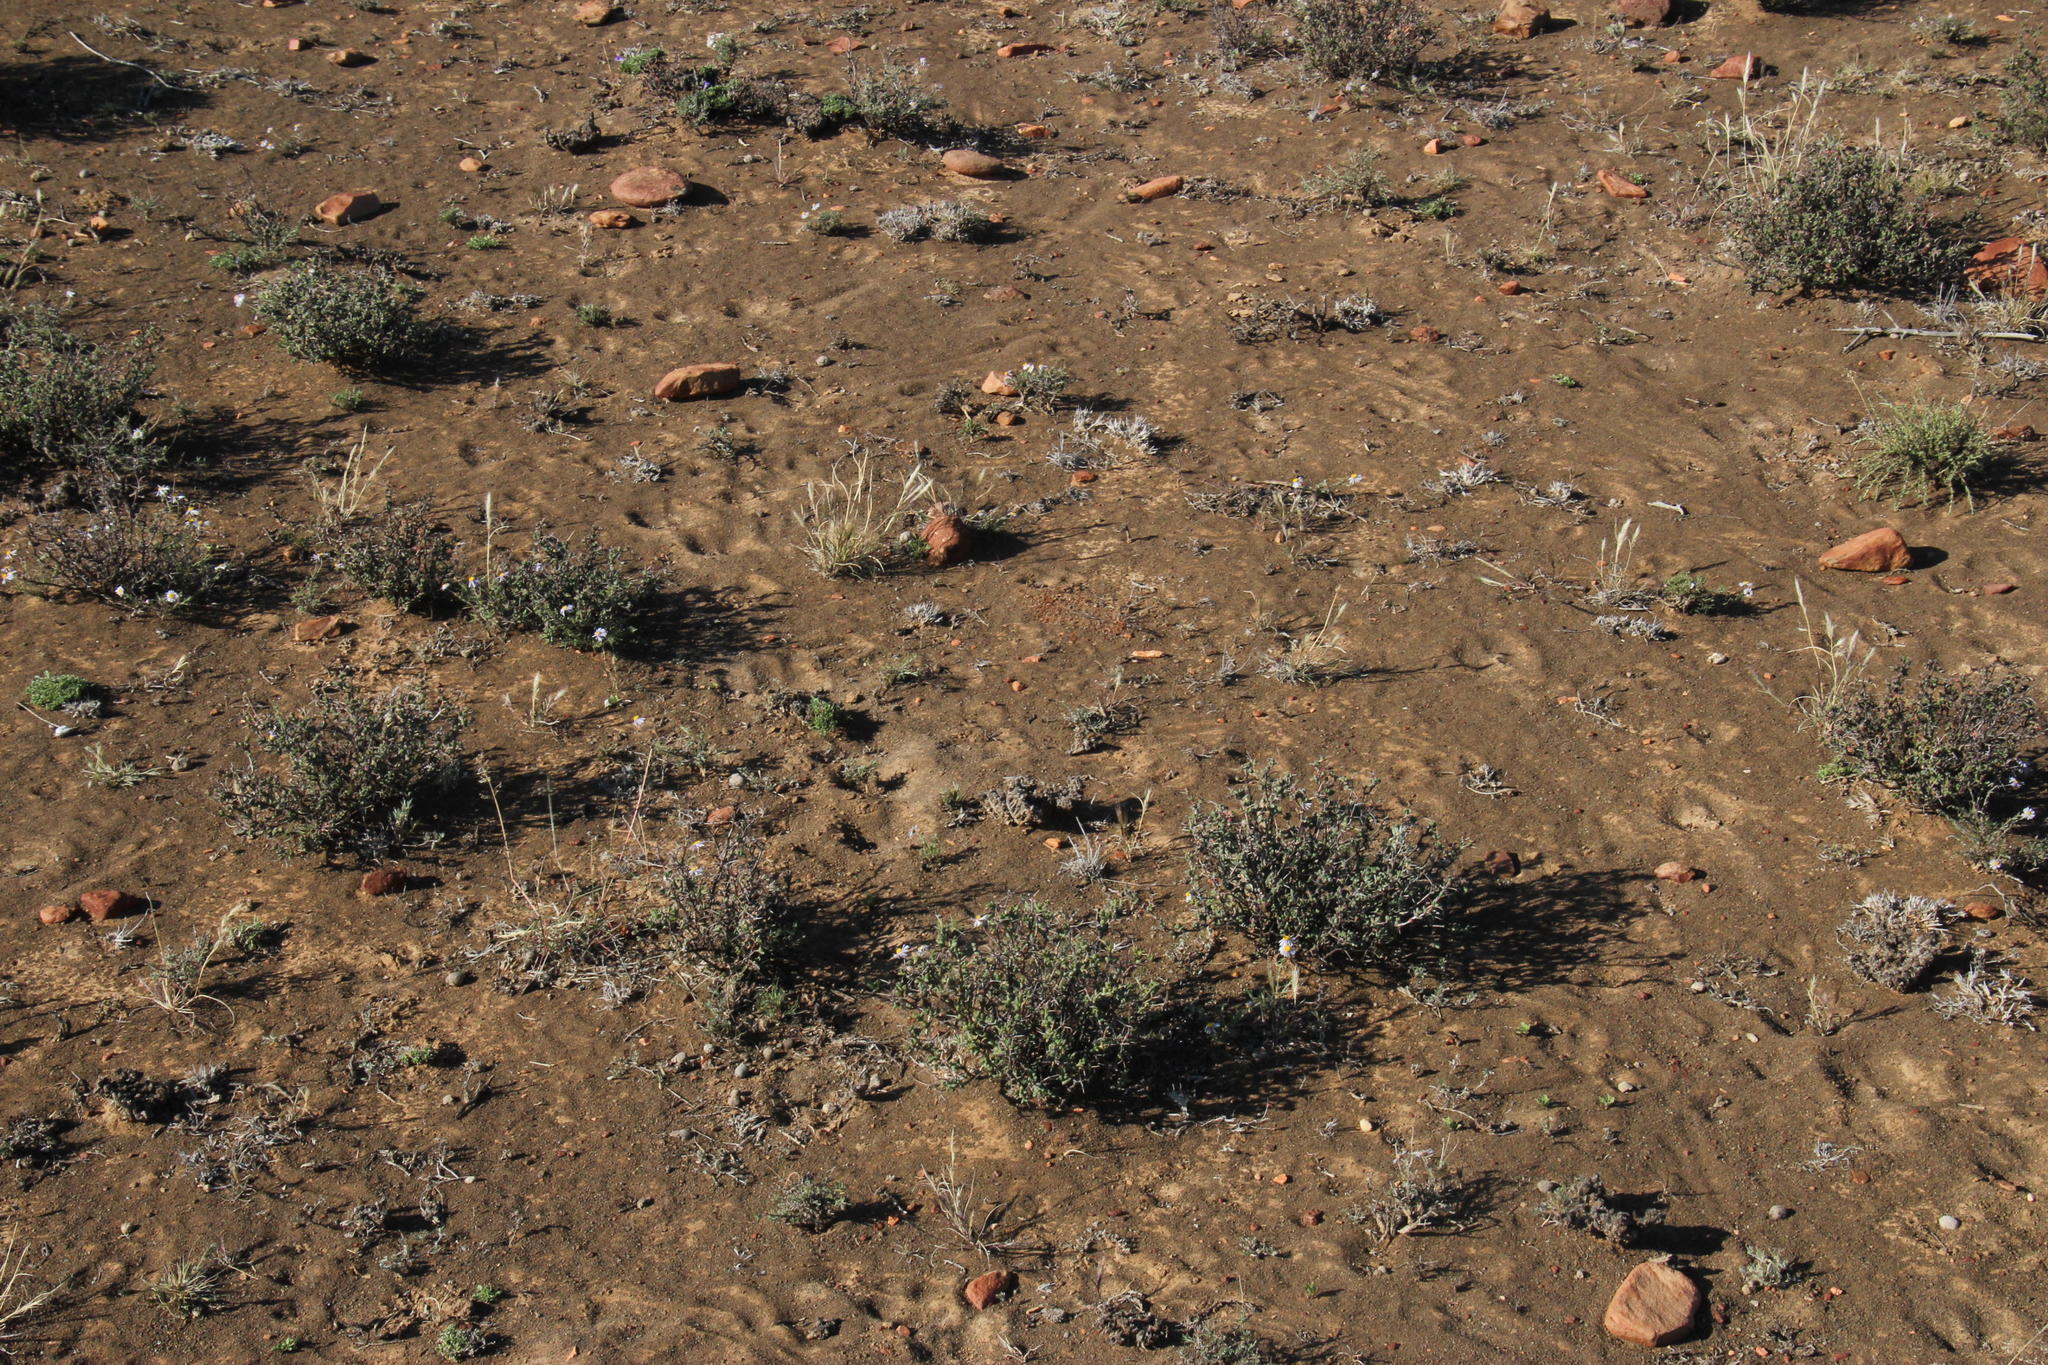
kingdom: Plantae
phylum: Tracheophyta
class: Magnoliopsida
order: Caryophyllales
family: Aizoaceae
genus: Ruschia
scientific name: Ruschia cradockensis
